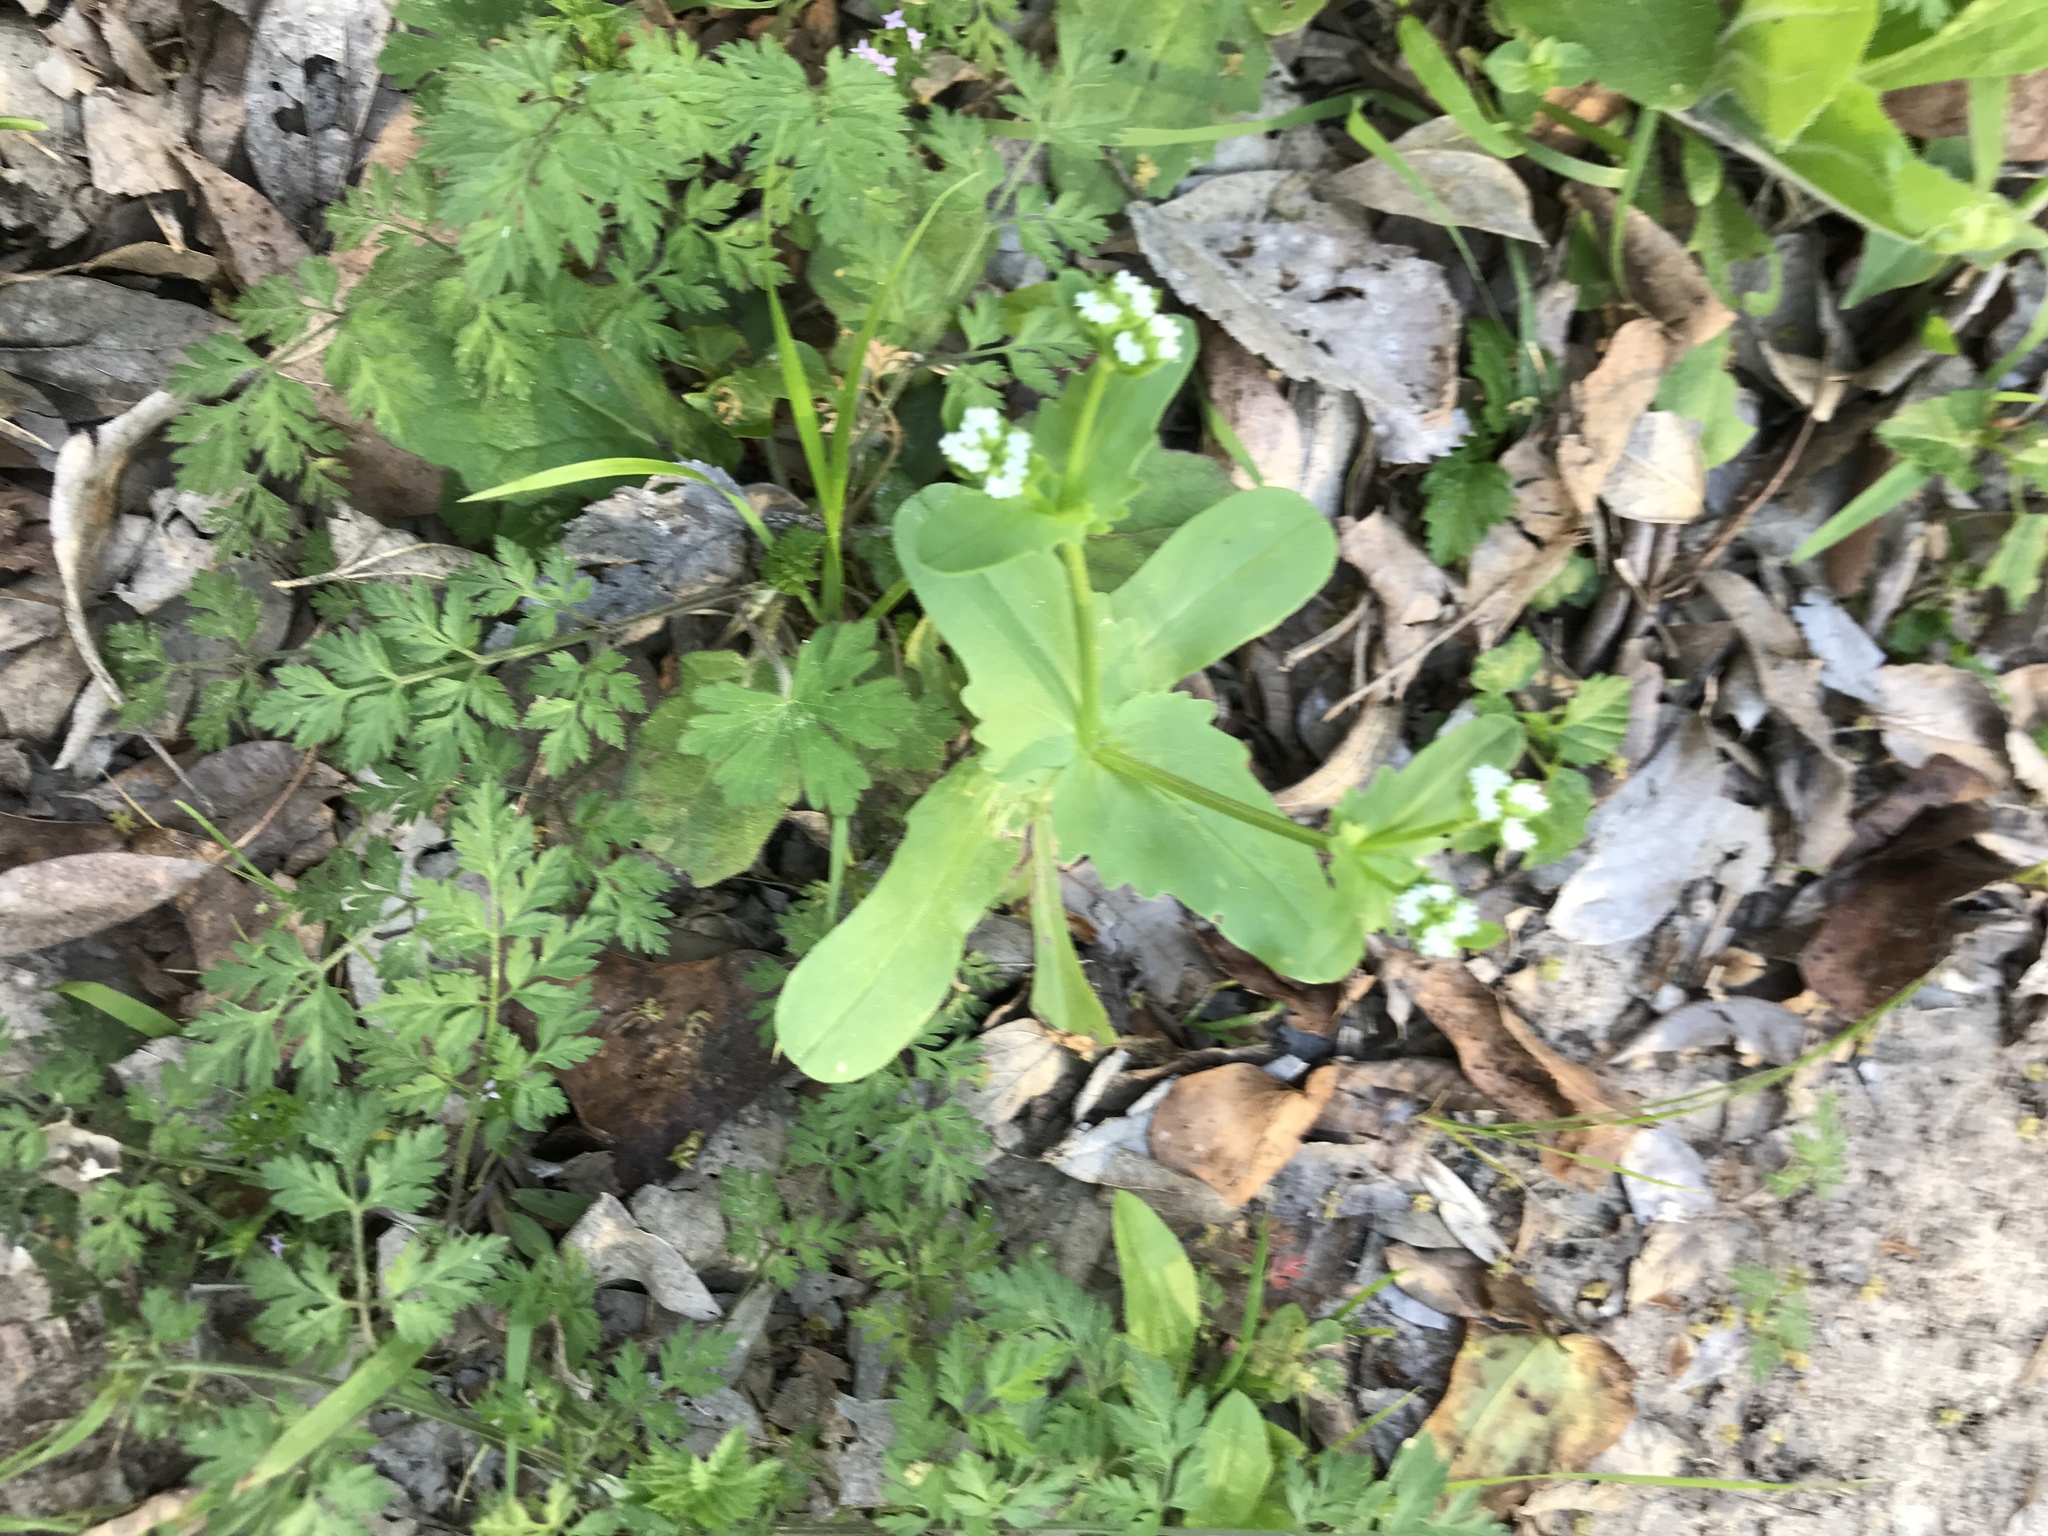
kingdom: Plantae
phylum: Tracheophyta
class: Magnoliopsida
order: Dipsacales
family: Caprifoliaceae
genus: Valerianella
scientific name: Valerianella radiata
